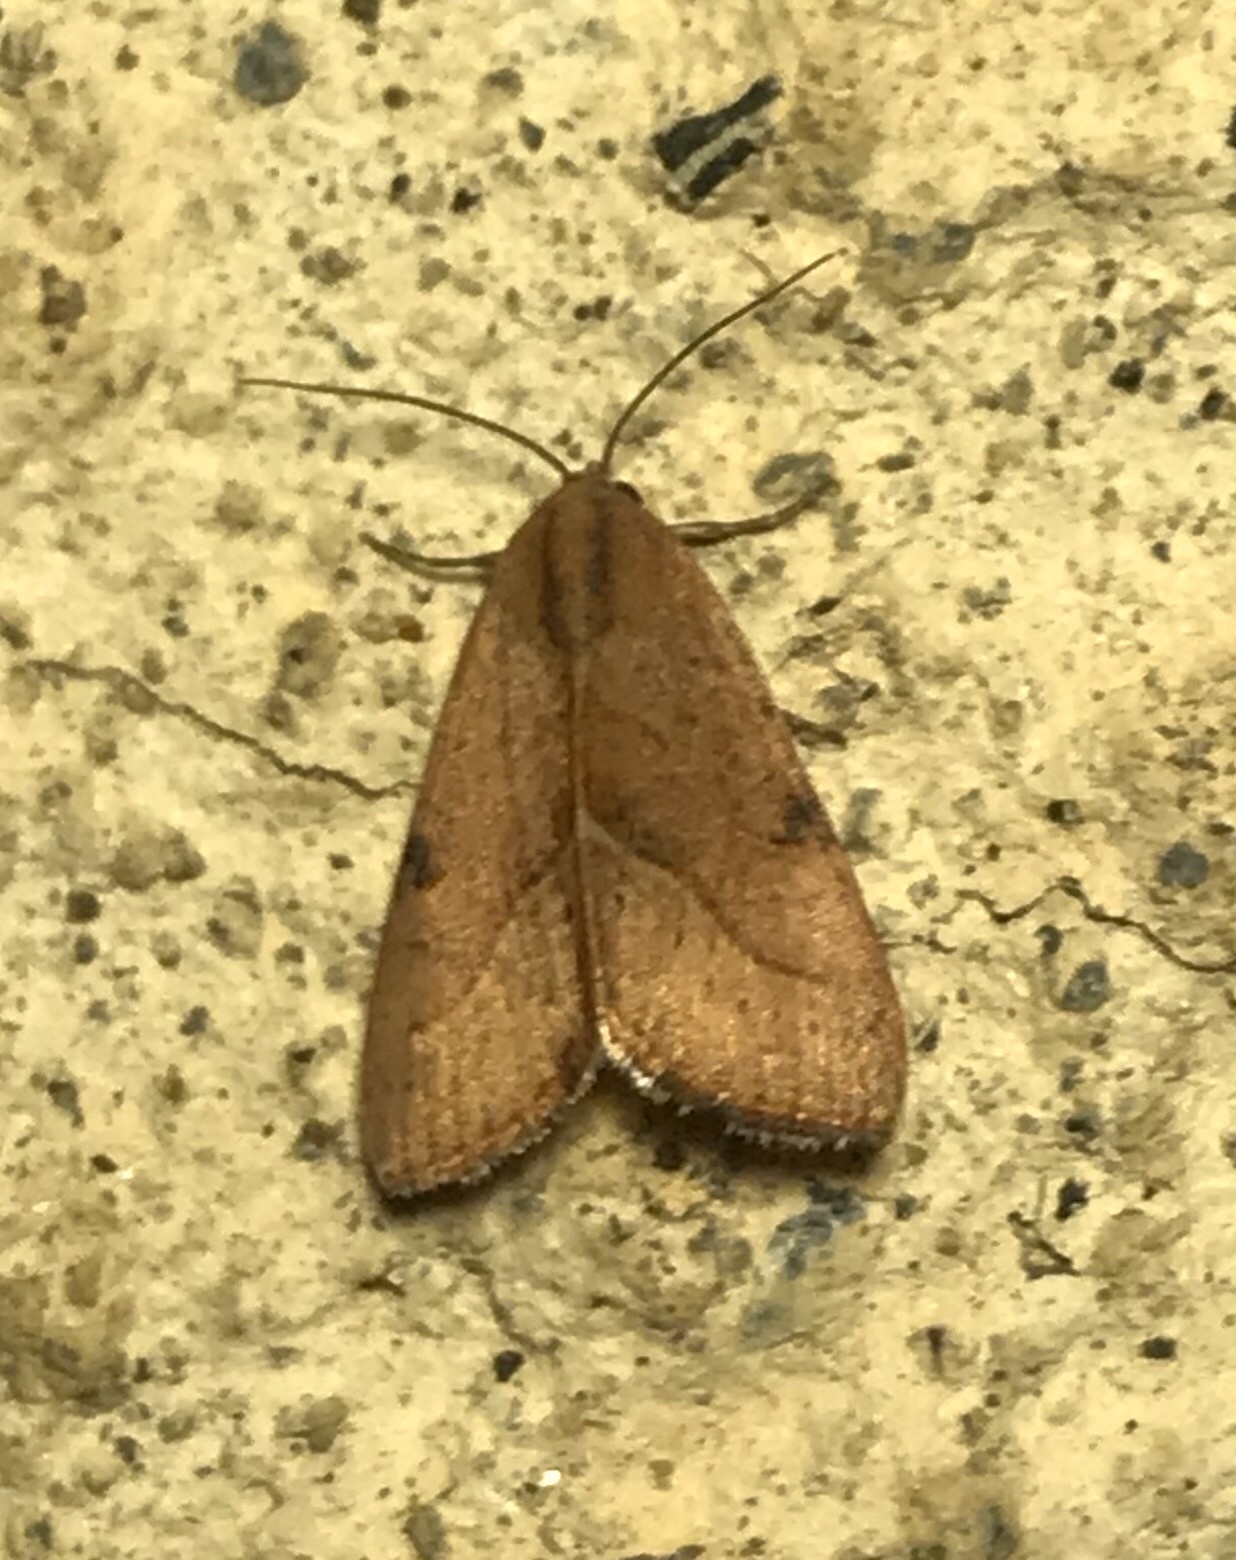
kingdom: Animalia
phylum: Arthropoda
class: Insecta
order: Lepidoptera
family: Noctuidae
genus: Galgula
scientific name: Galgula partita
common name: Wedgeling
